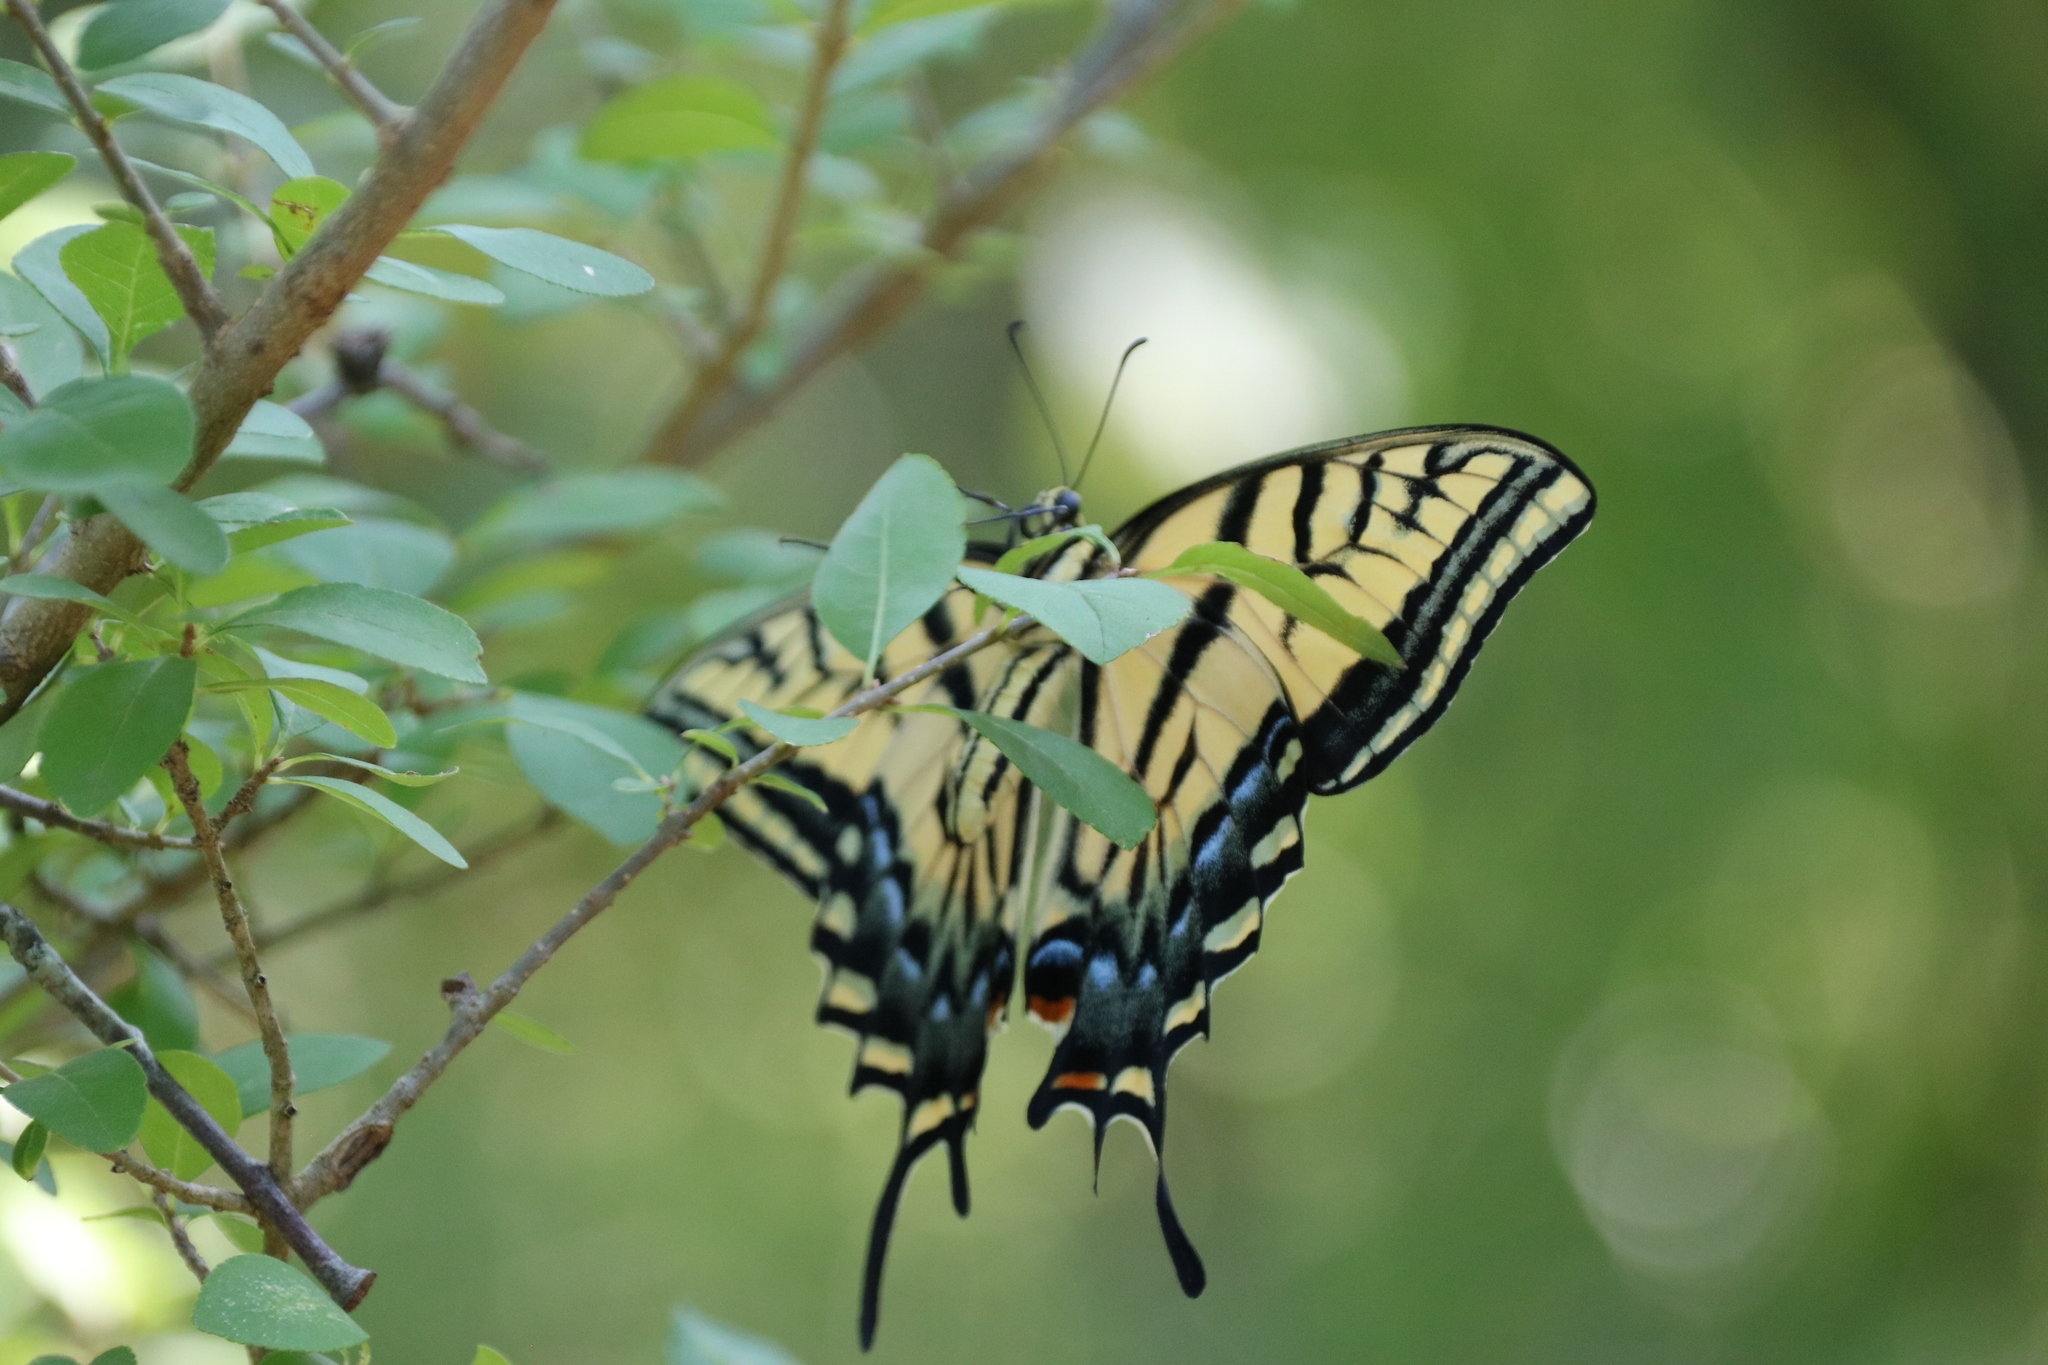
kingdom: Animalia
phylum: Arthropoda
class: Insecta
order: Lepidoptera
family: Papilionidae
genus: Papilio
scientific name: Papilio multicaudata
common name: Two-tailed tiger swallowtail
